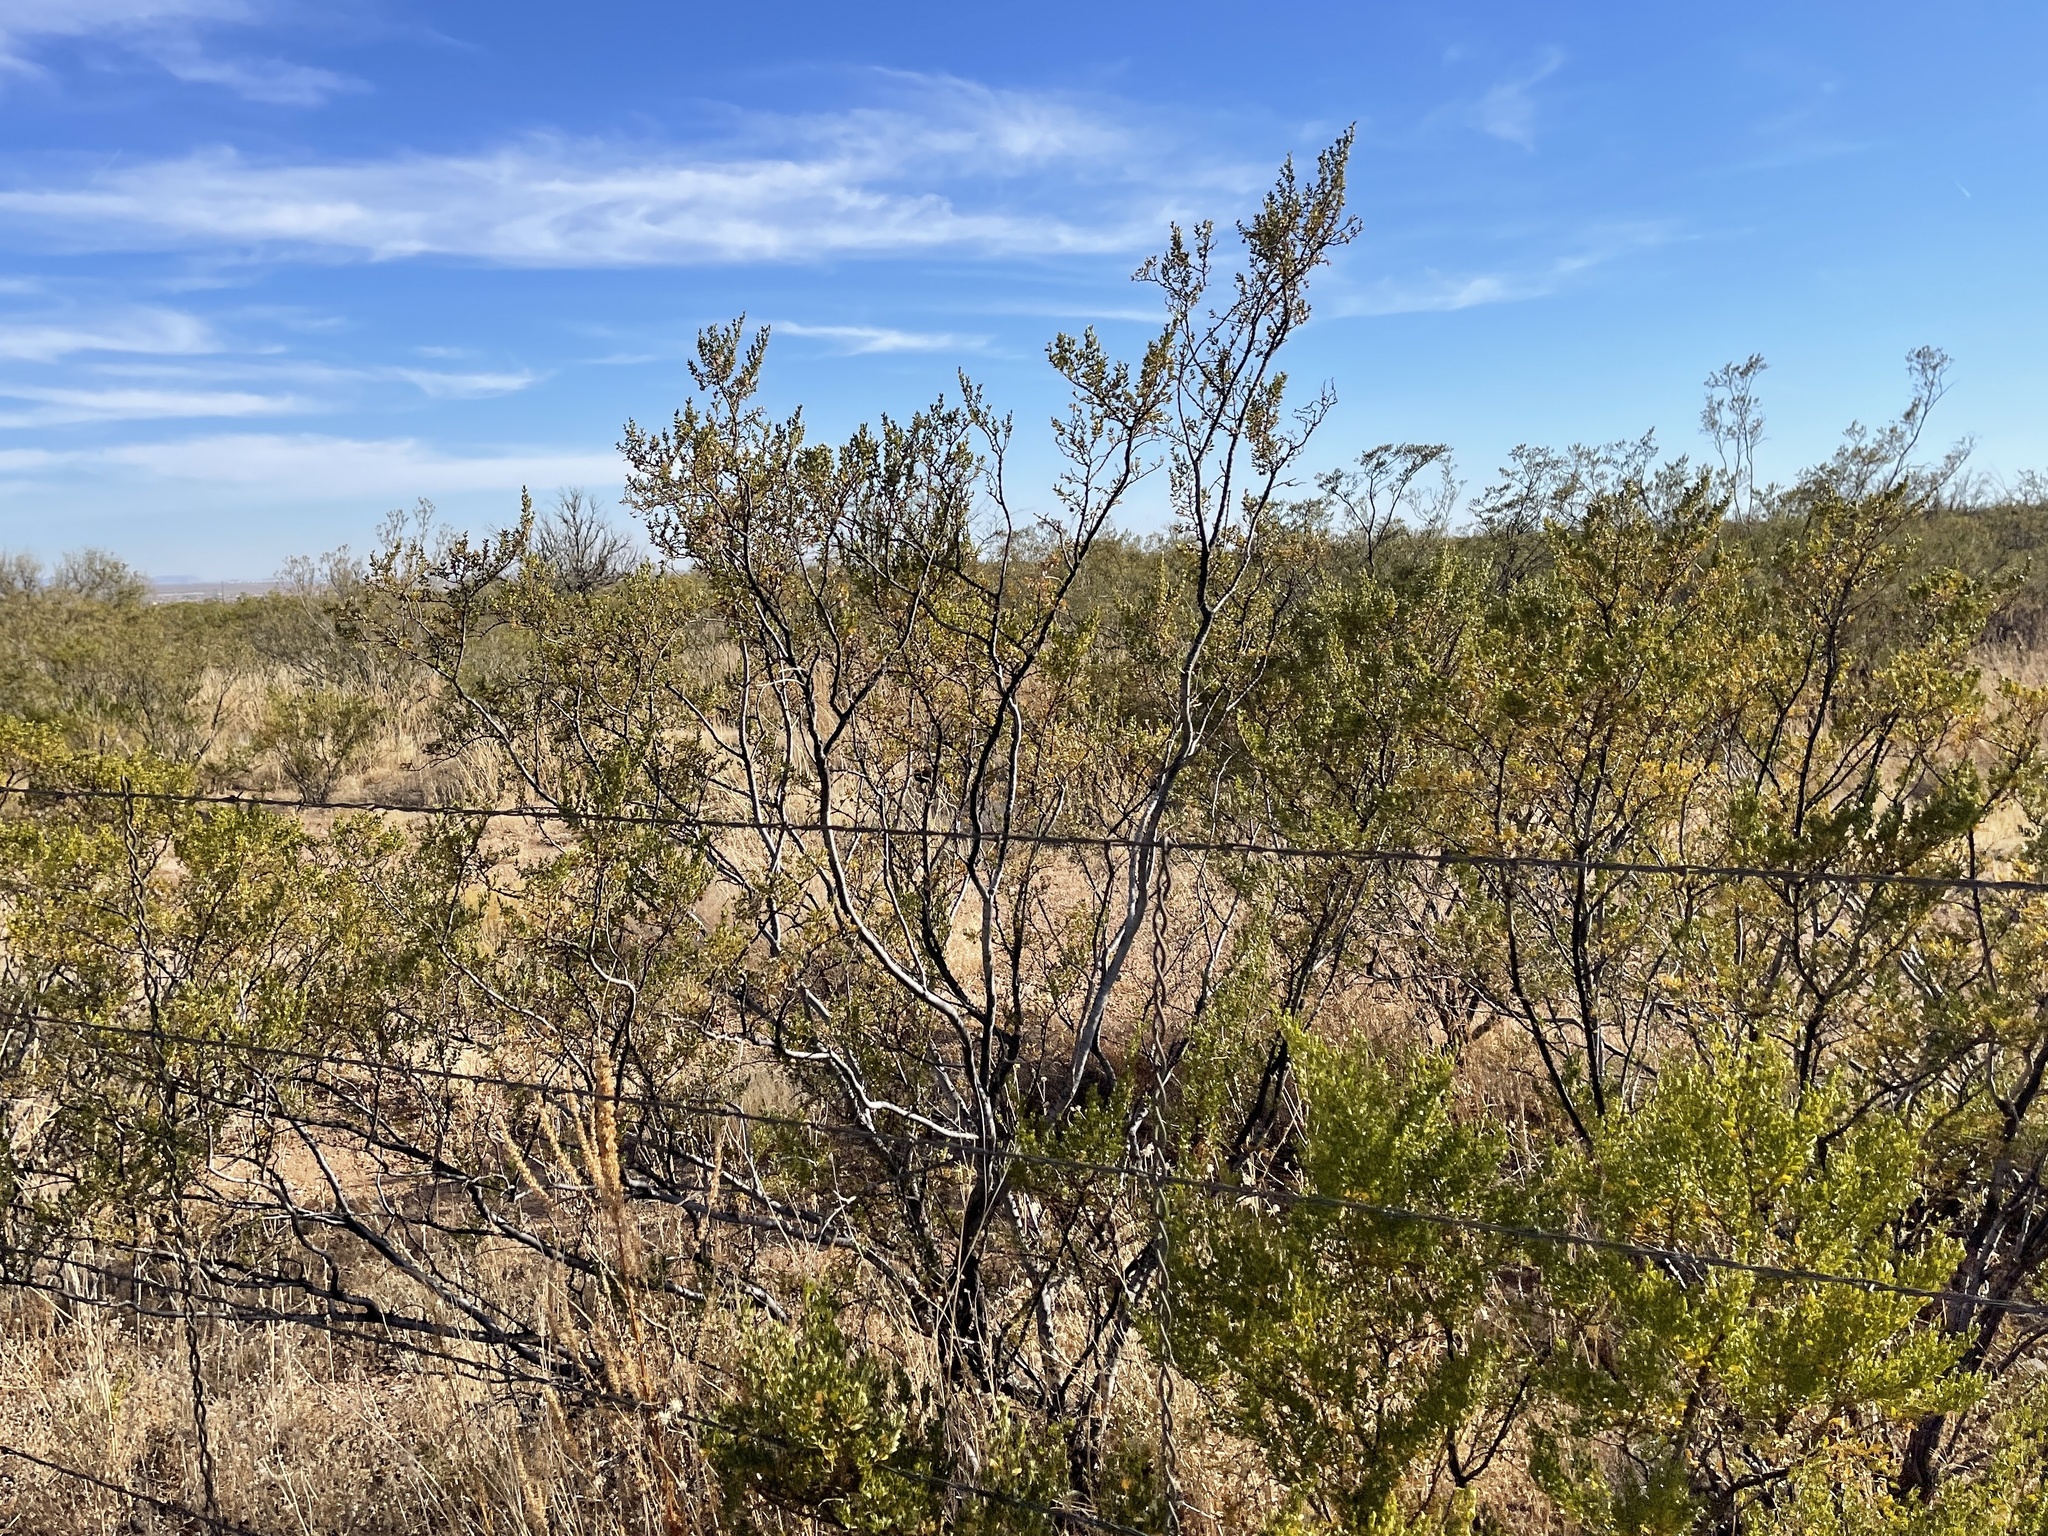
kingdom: Plantae
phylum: Tracheophyta
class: Magnoliopsida
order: Zygophyllales
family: Zygophyllaceae
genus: Larrea
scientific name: Larrea tridentata
